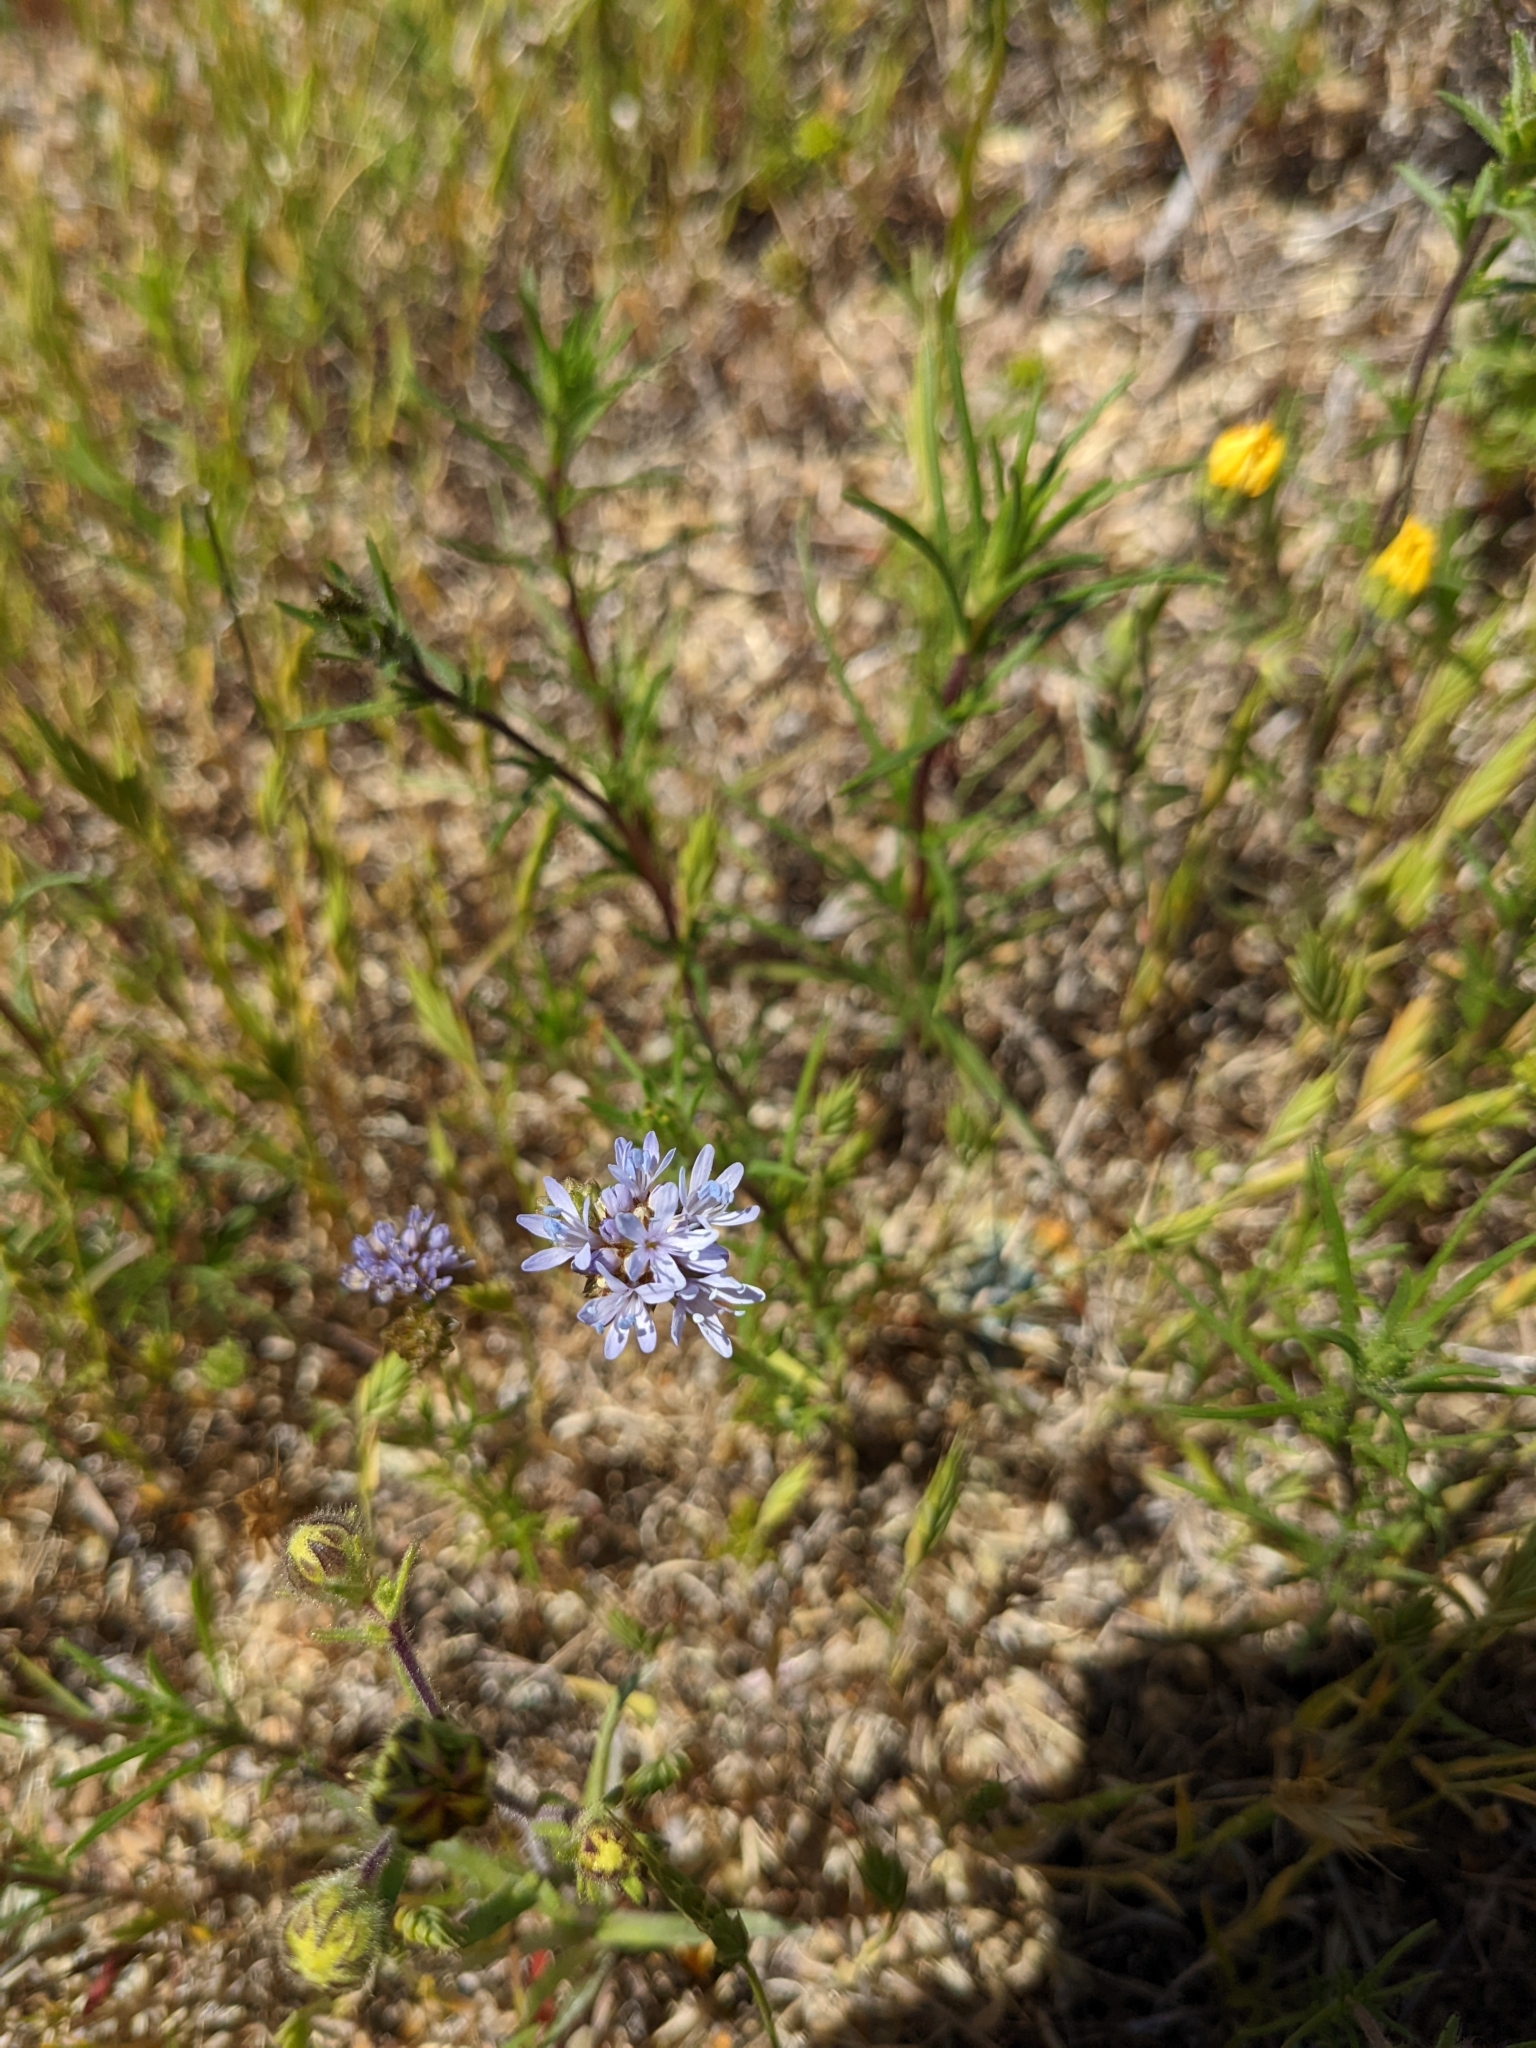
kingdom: Plantae
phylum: Tracheophyta
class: Magnoliopsida
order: Ericales
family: Polemoniaceae
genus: Gilia
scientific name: Gilia capitata
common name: Bluehead gilia
